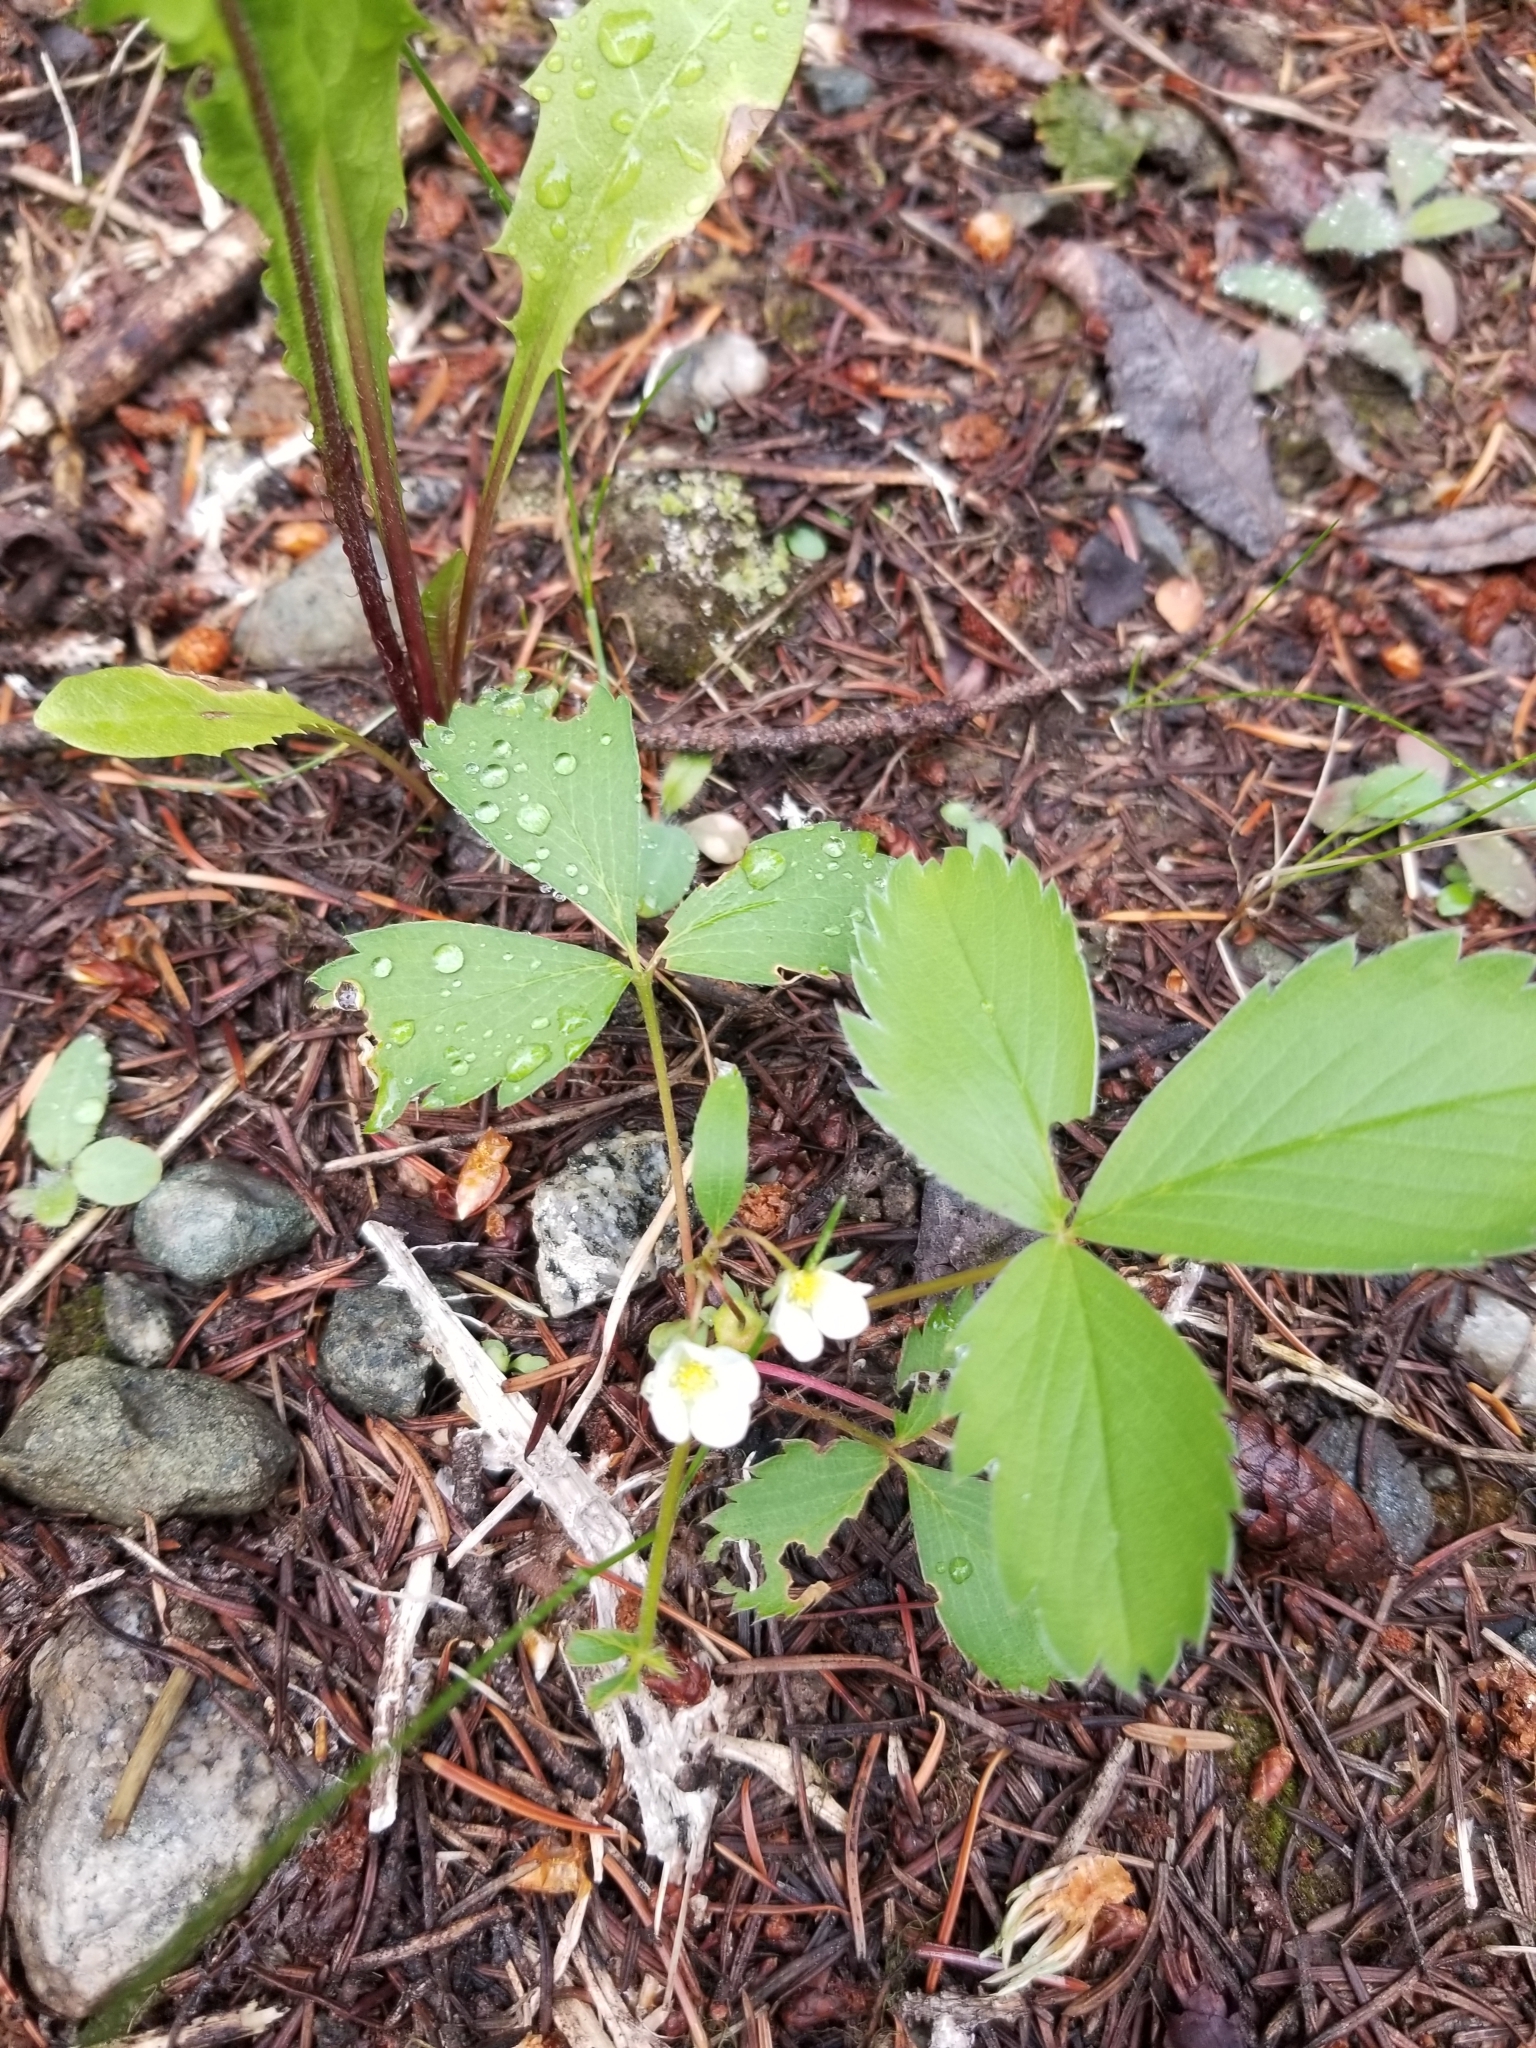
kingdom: Plantae
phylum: Tracheophyta
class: Magnoliopsida
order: Rosales
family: Rosaceae
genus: Fragaria
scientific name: Fragaria virginiana
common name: Thickleaved wild strawberry
